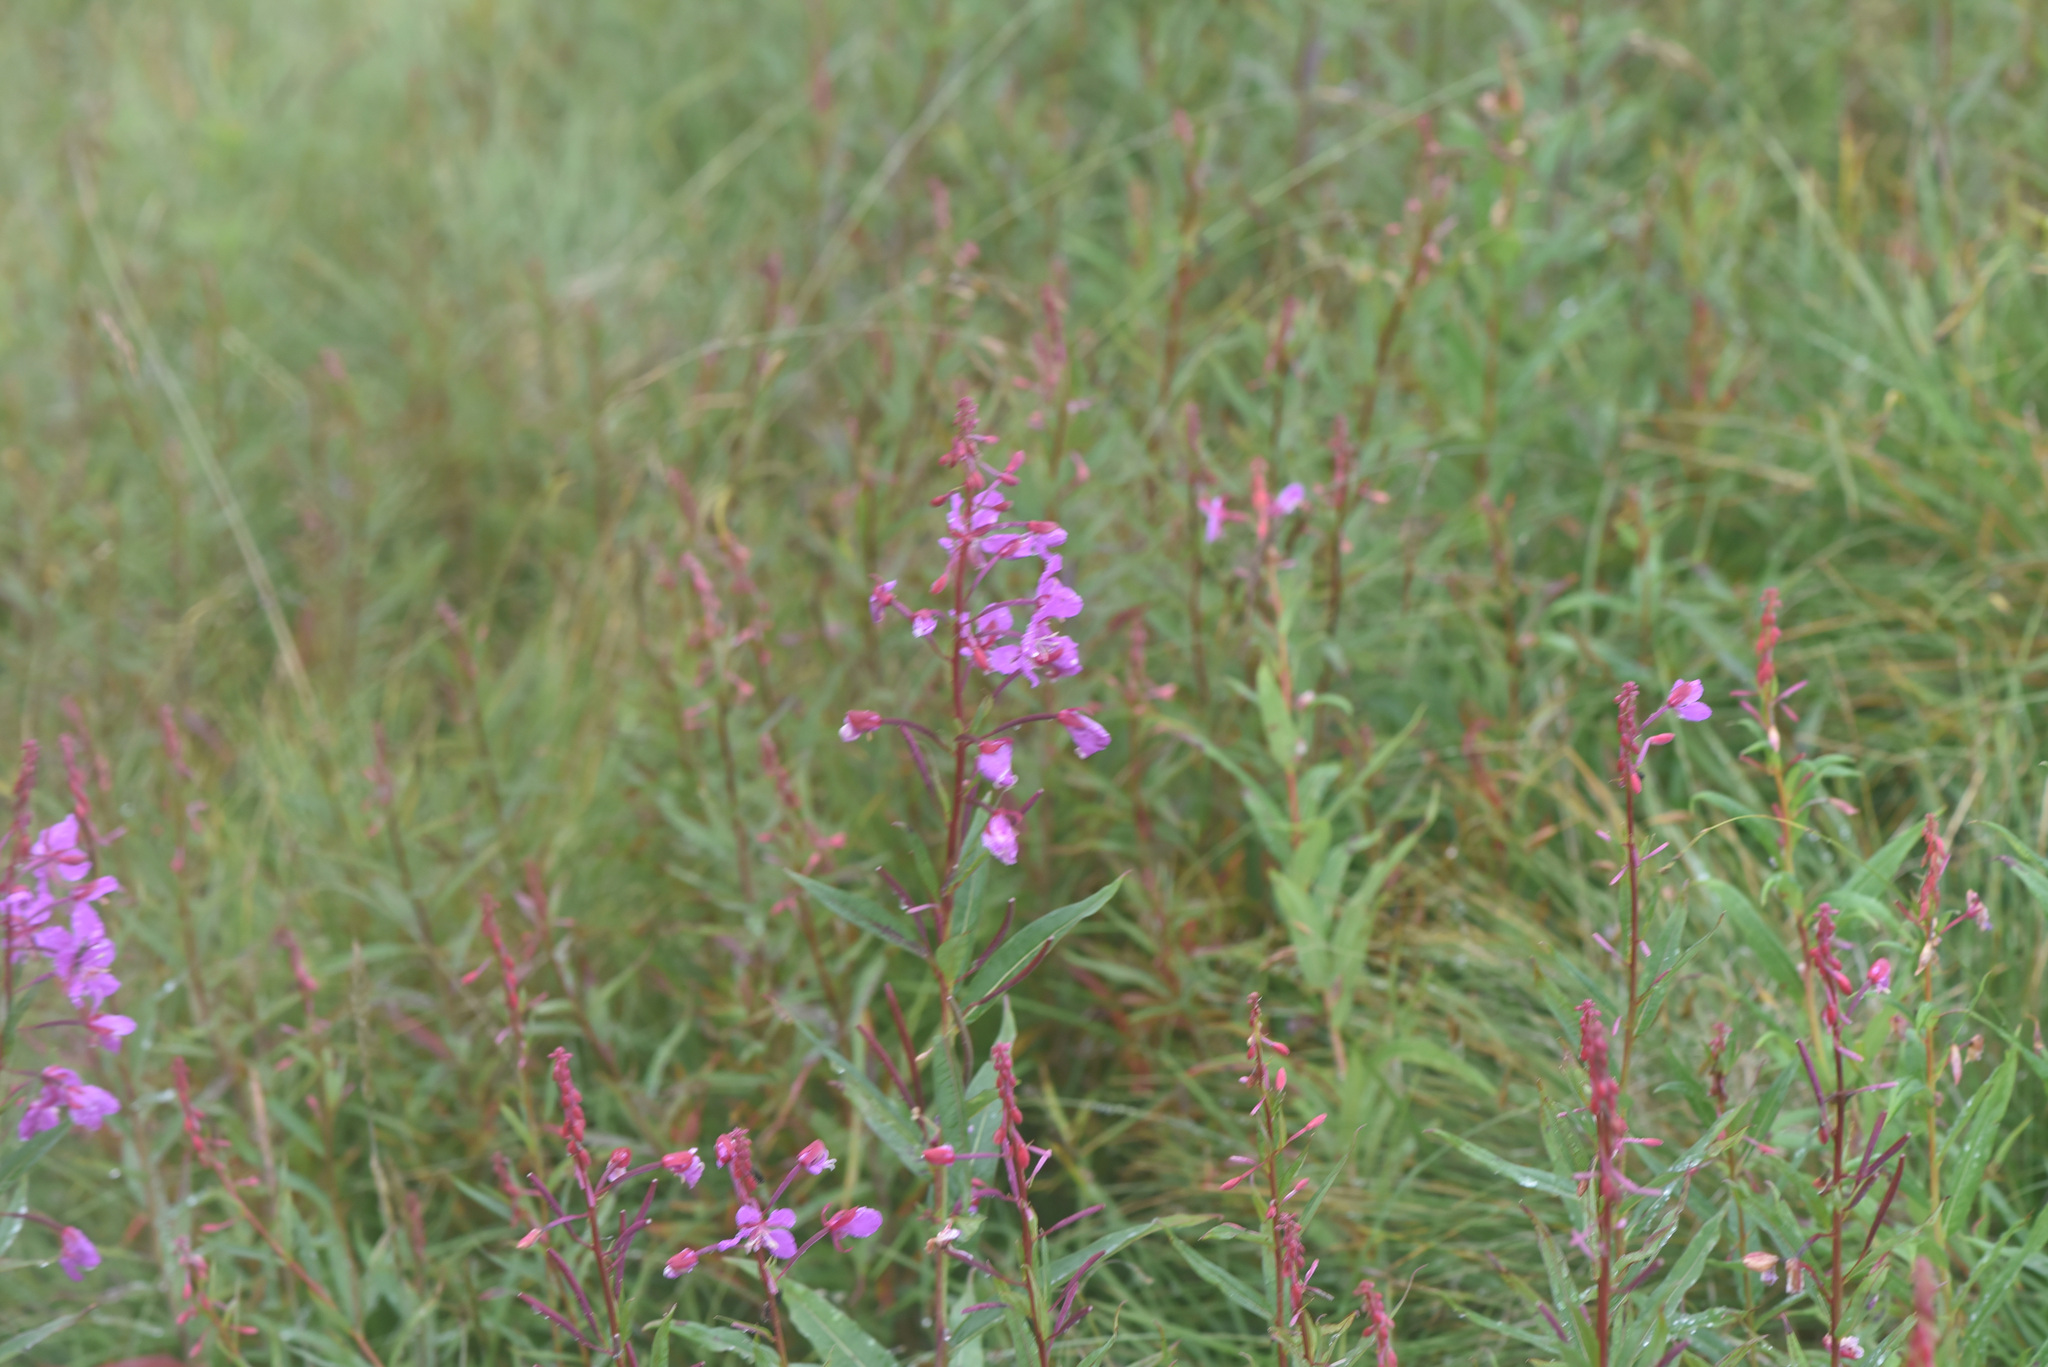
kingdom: Plantae
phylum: Tracheophyta
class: Magnoliopsida
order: Myrtales
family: Onagraceae
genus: Chamaenerion
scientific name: Chamaenerion angustifolium
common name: Fireweed
